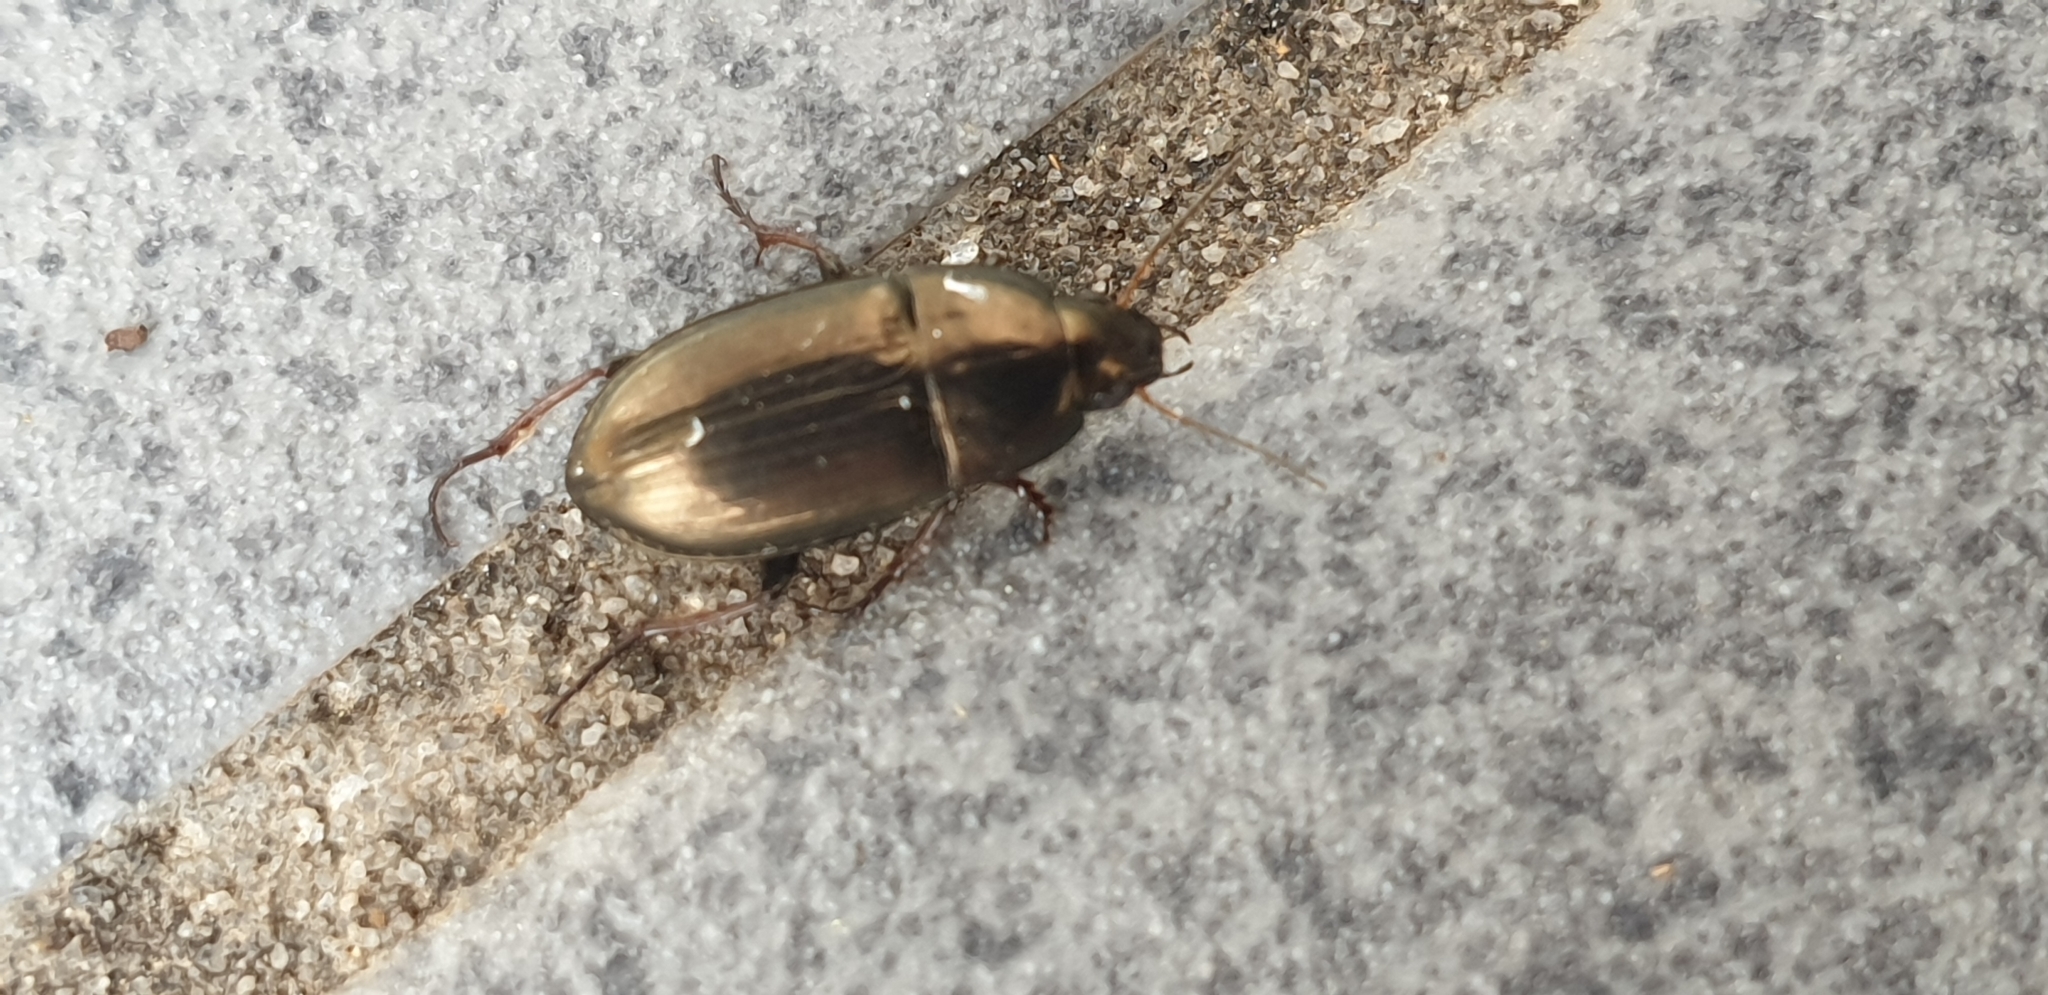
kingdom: Animalia
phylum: Arthropoda
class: Insecta
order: Coleoptera
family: Carabidae
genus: Amara
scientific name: Amara aenea
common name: Common sun beetle
